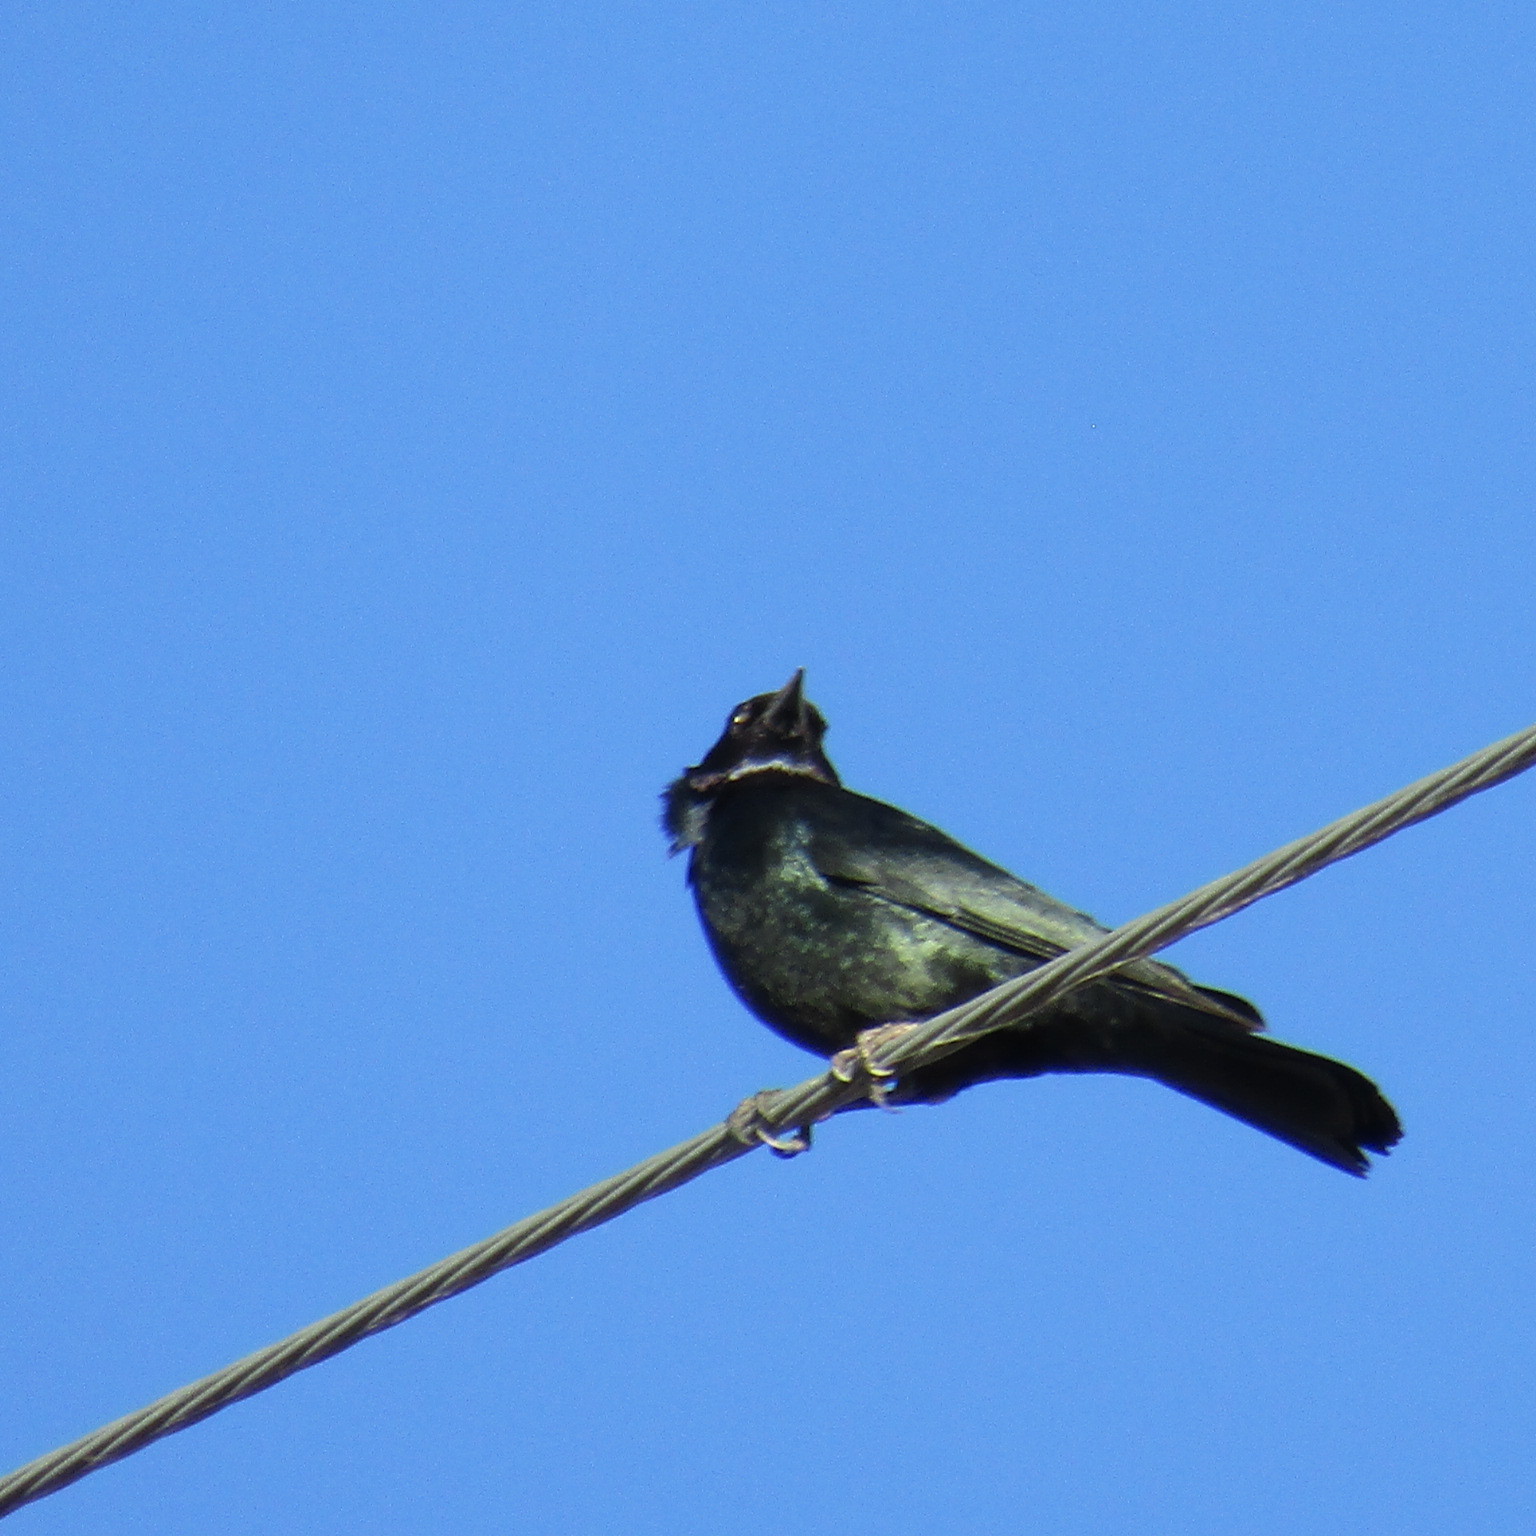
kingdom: Animalia
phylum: Chordata
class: Aves
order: Passeriformes
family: Icteridae
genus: Euphagus
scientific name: Euphagus cyanocephalus
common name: Brewer's blackbird
